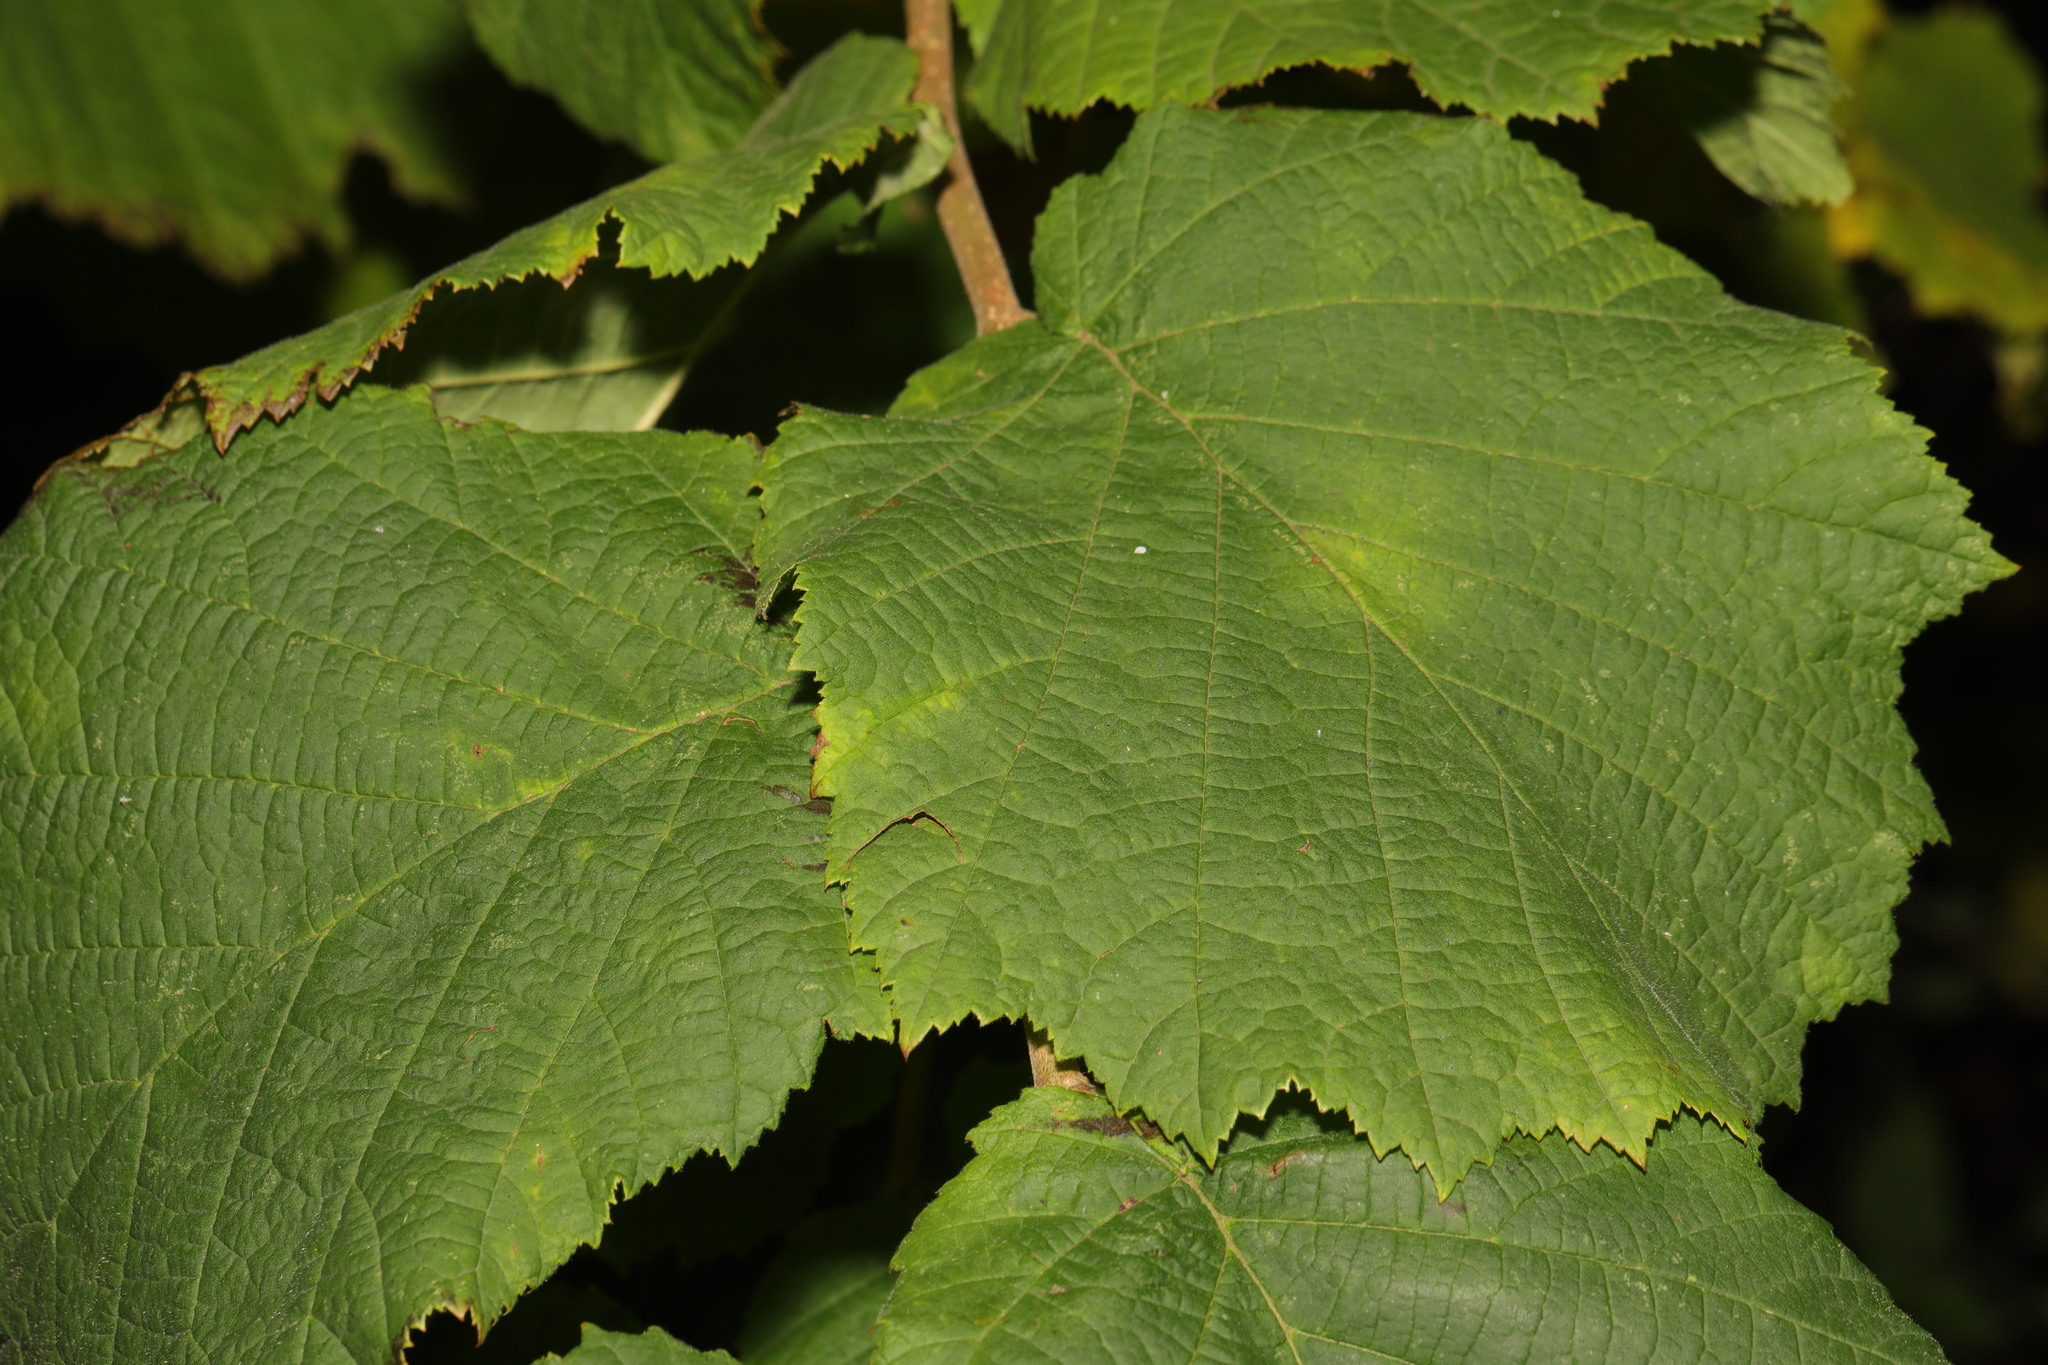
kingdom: Plantae
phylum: Tracheophyta
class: Magnoliopsida
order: Fagales
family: Betulaceae
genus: Corylus
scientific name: Corylus avellana
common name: European hazel
